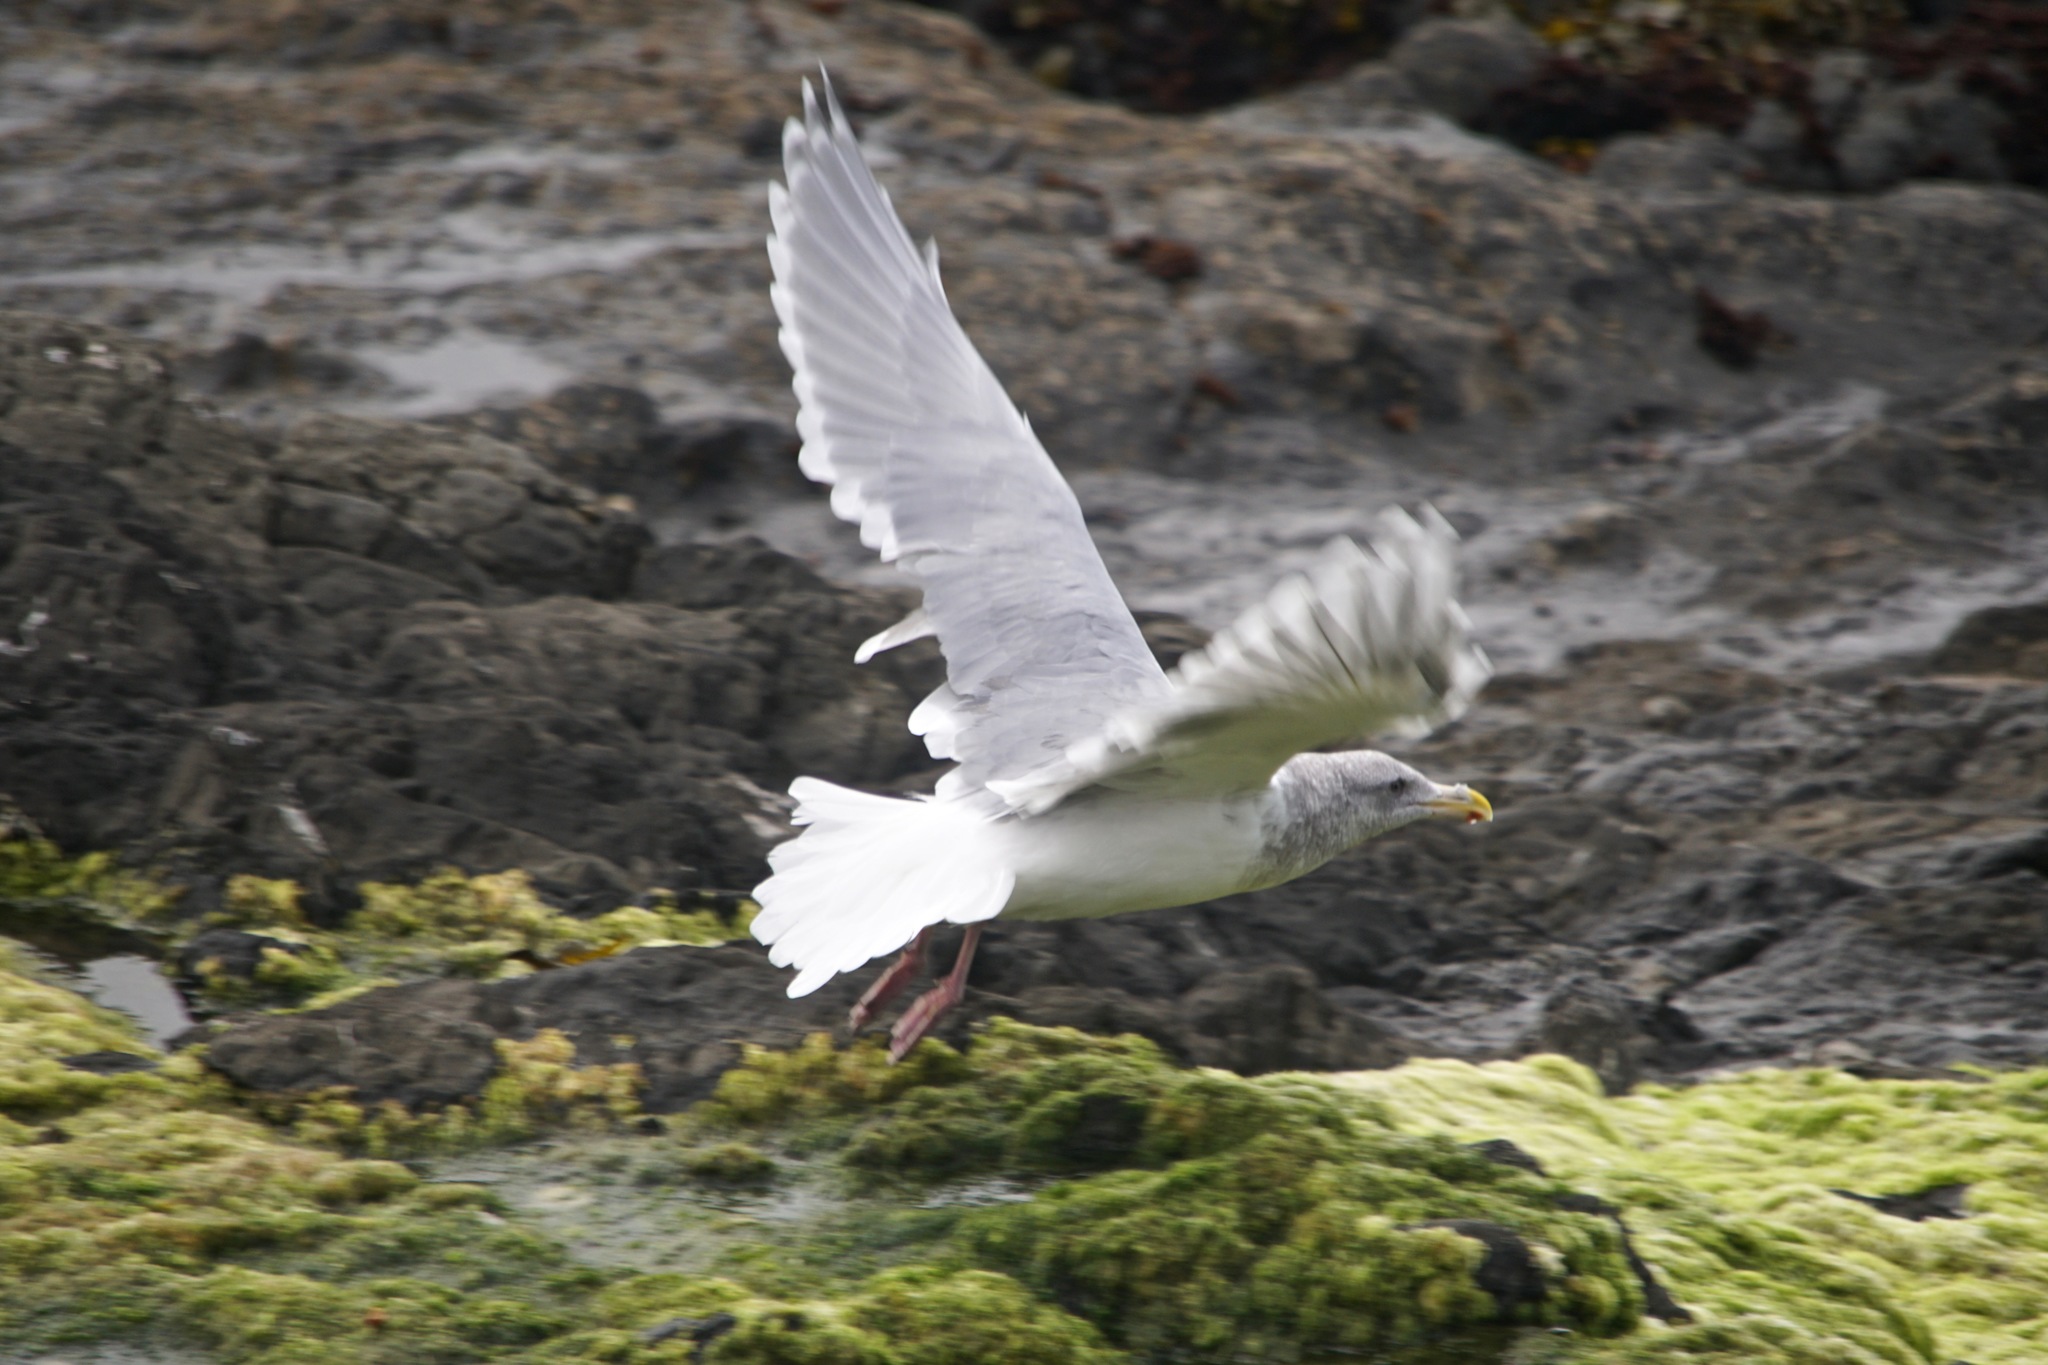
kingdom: Animalia
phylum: Chordata
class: Aves
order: Charadriiformes
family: Laridae
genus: Larus
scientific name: Larus glaucescens
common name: Glaucous-winged gull
